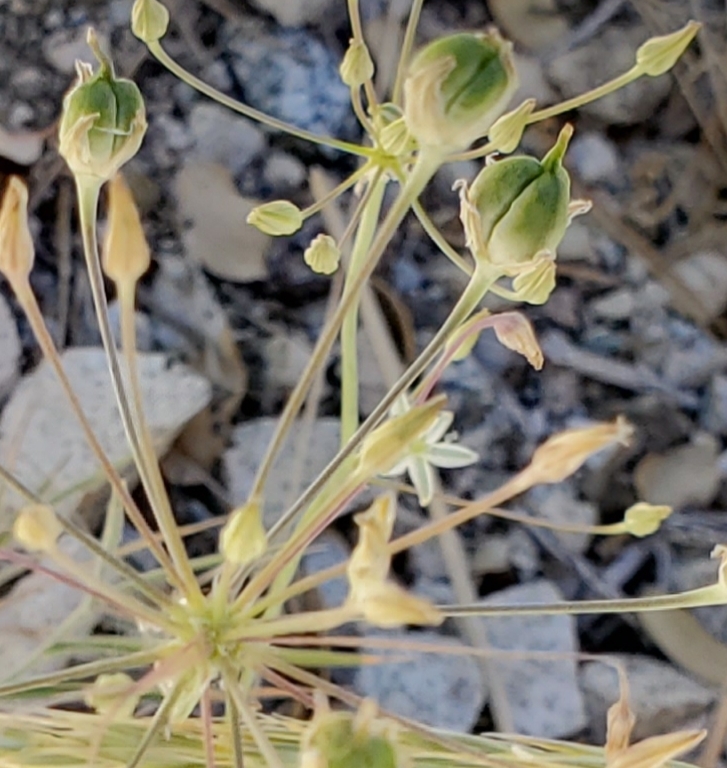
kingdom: Plantae
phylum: Tracheophyta
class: Liliopsida
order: Asparagales
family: Asparagaceae
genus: Muilla
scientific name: Muilla maritima
